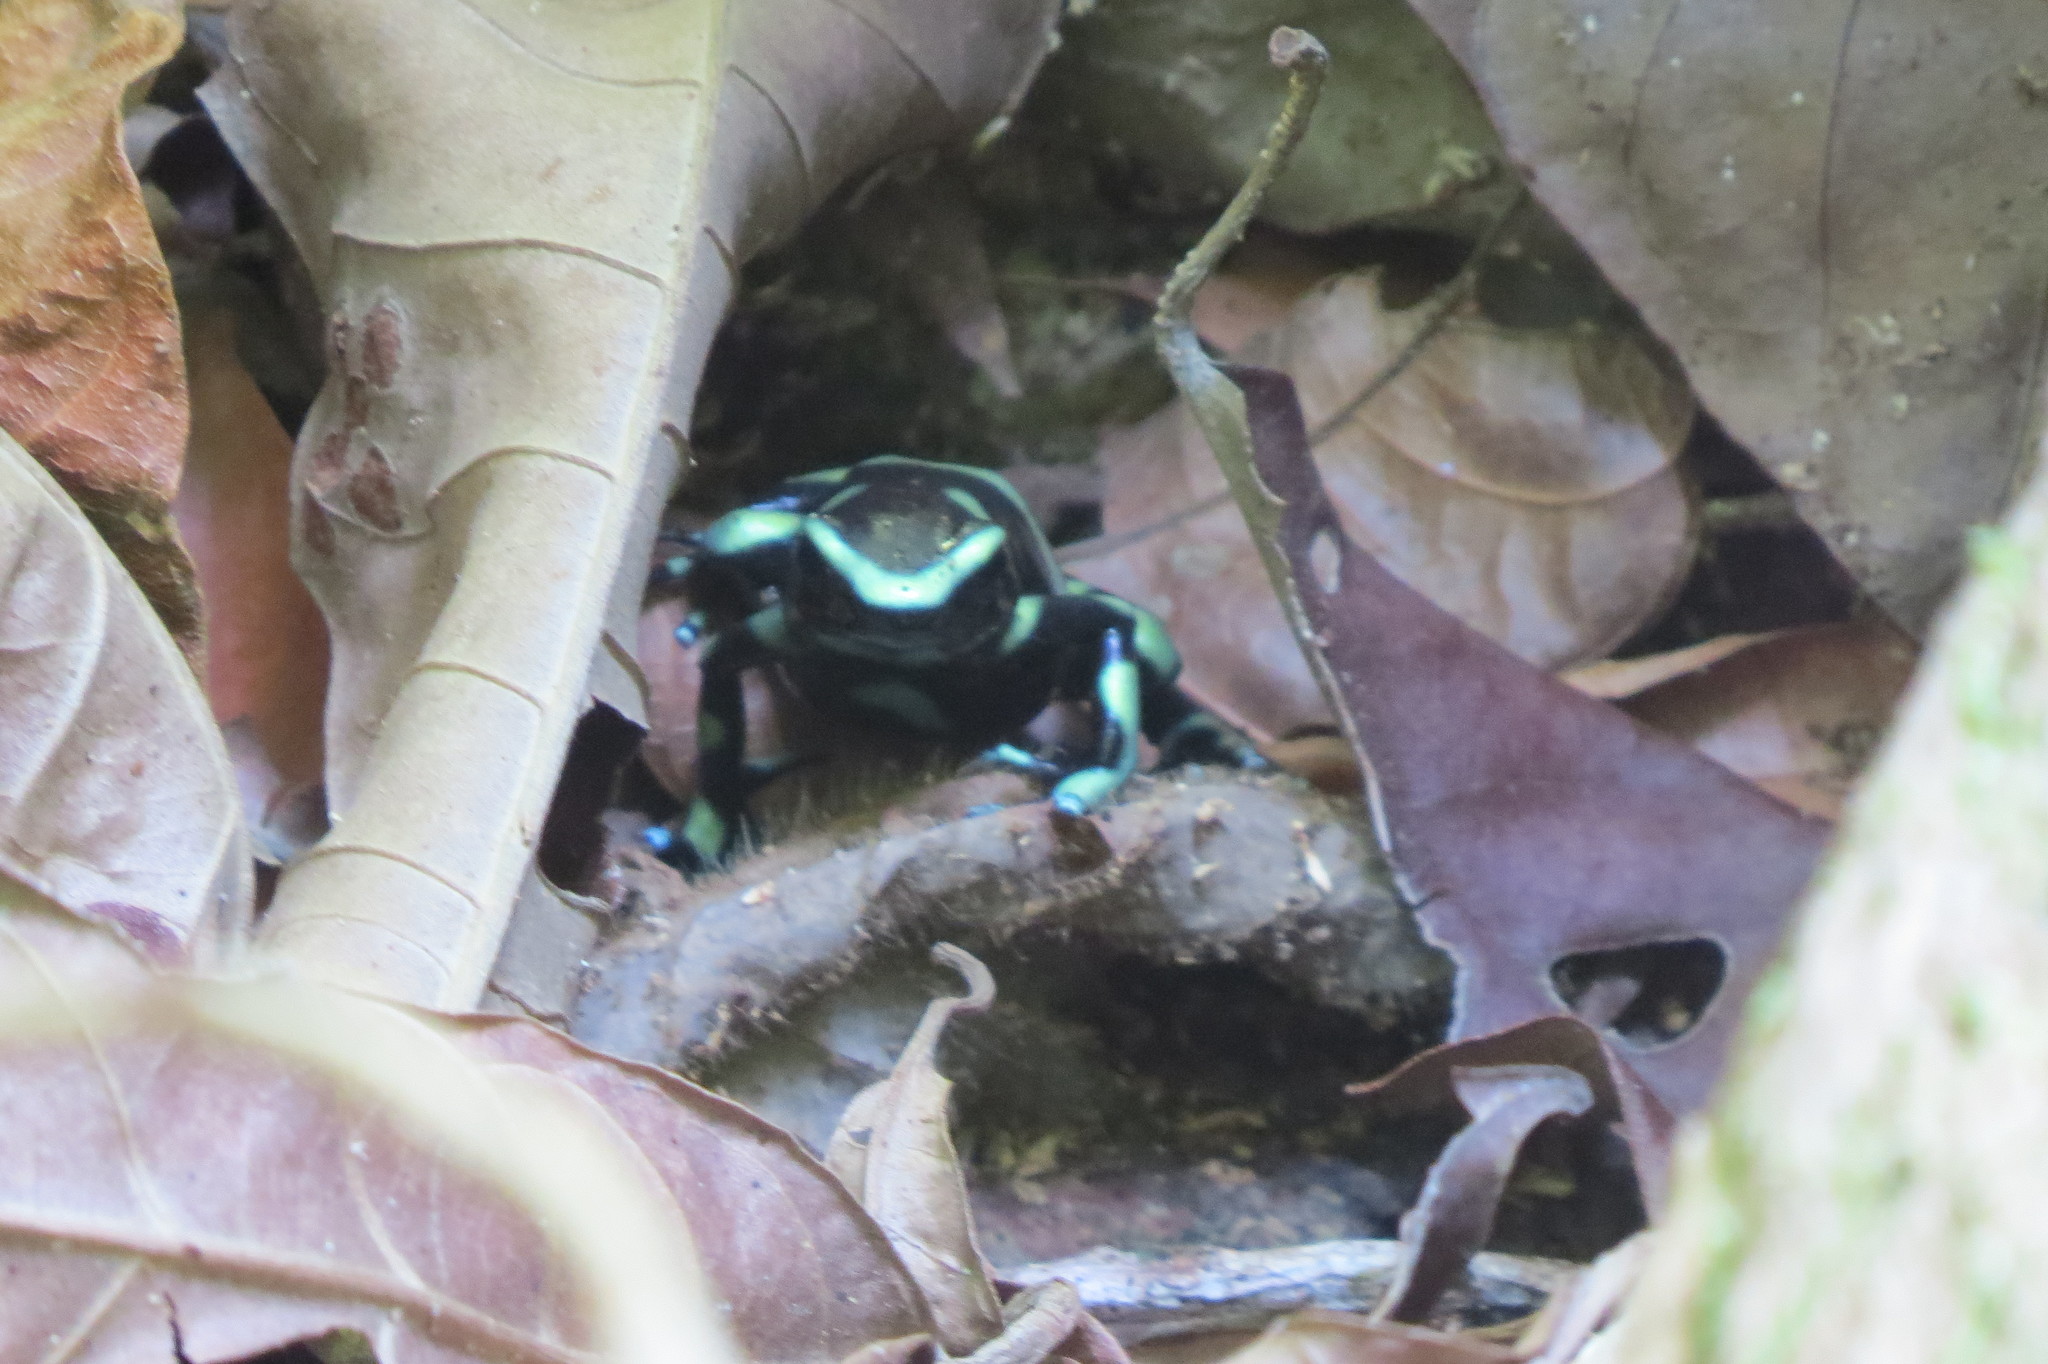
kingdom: Animalia
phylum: Chordata
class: Amphibia
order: Anura
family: Dendrobatidae
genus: Dendrobates
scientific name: Dendrobates auratus
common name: Green and black poison dart frog
